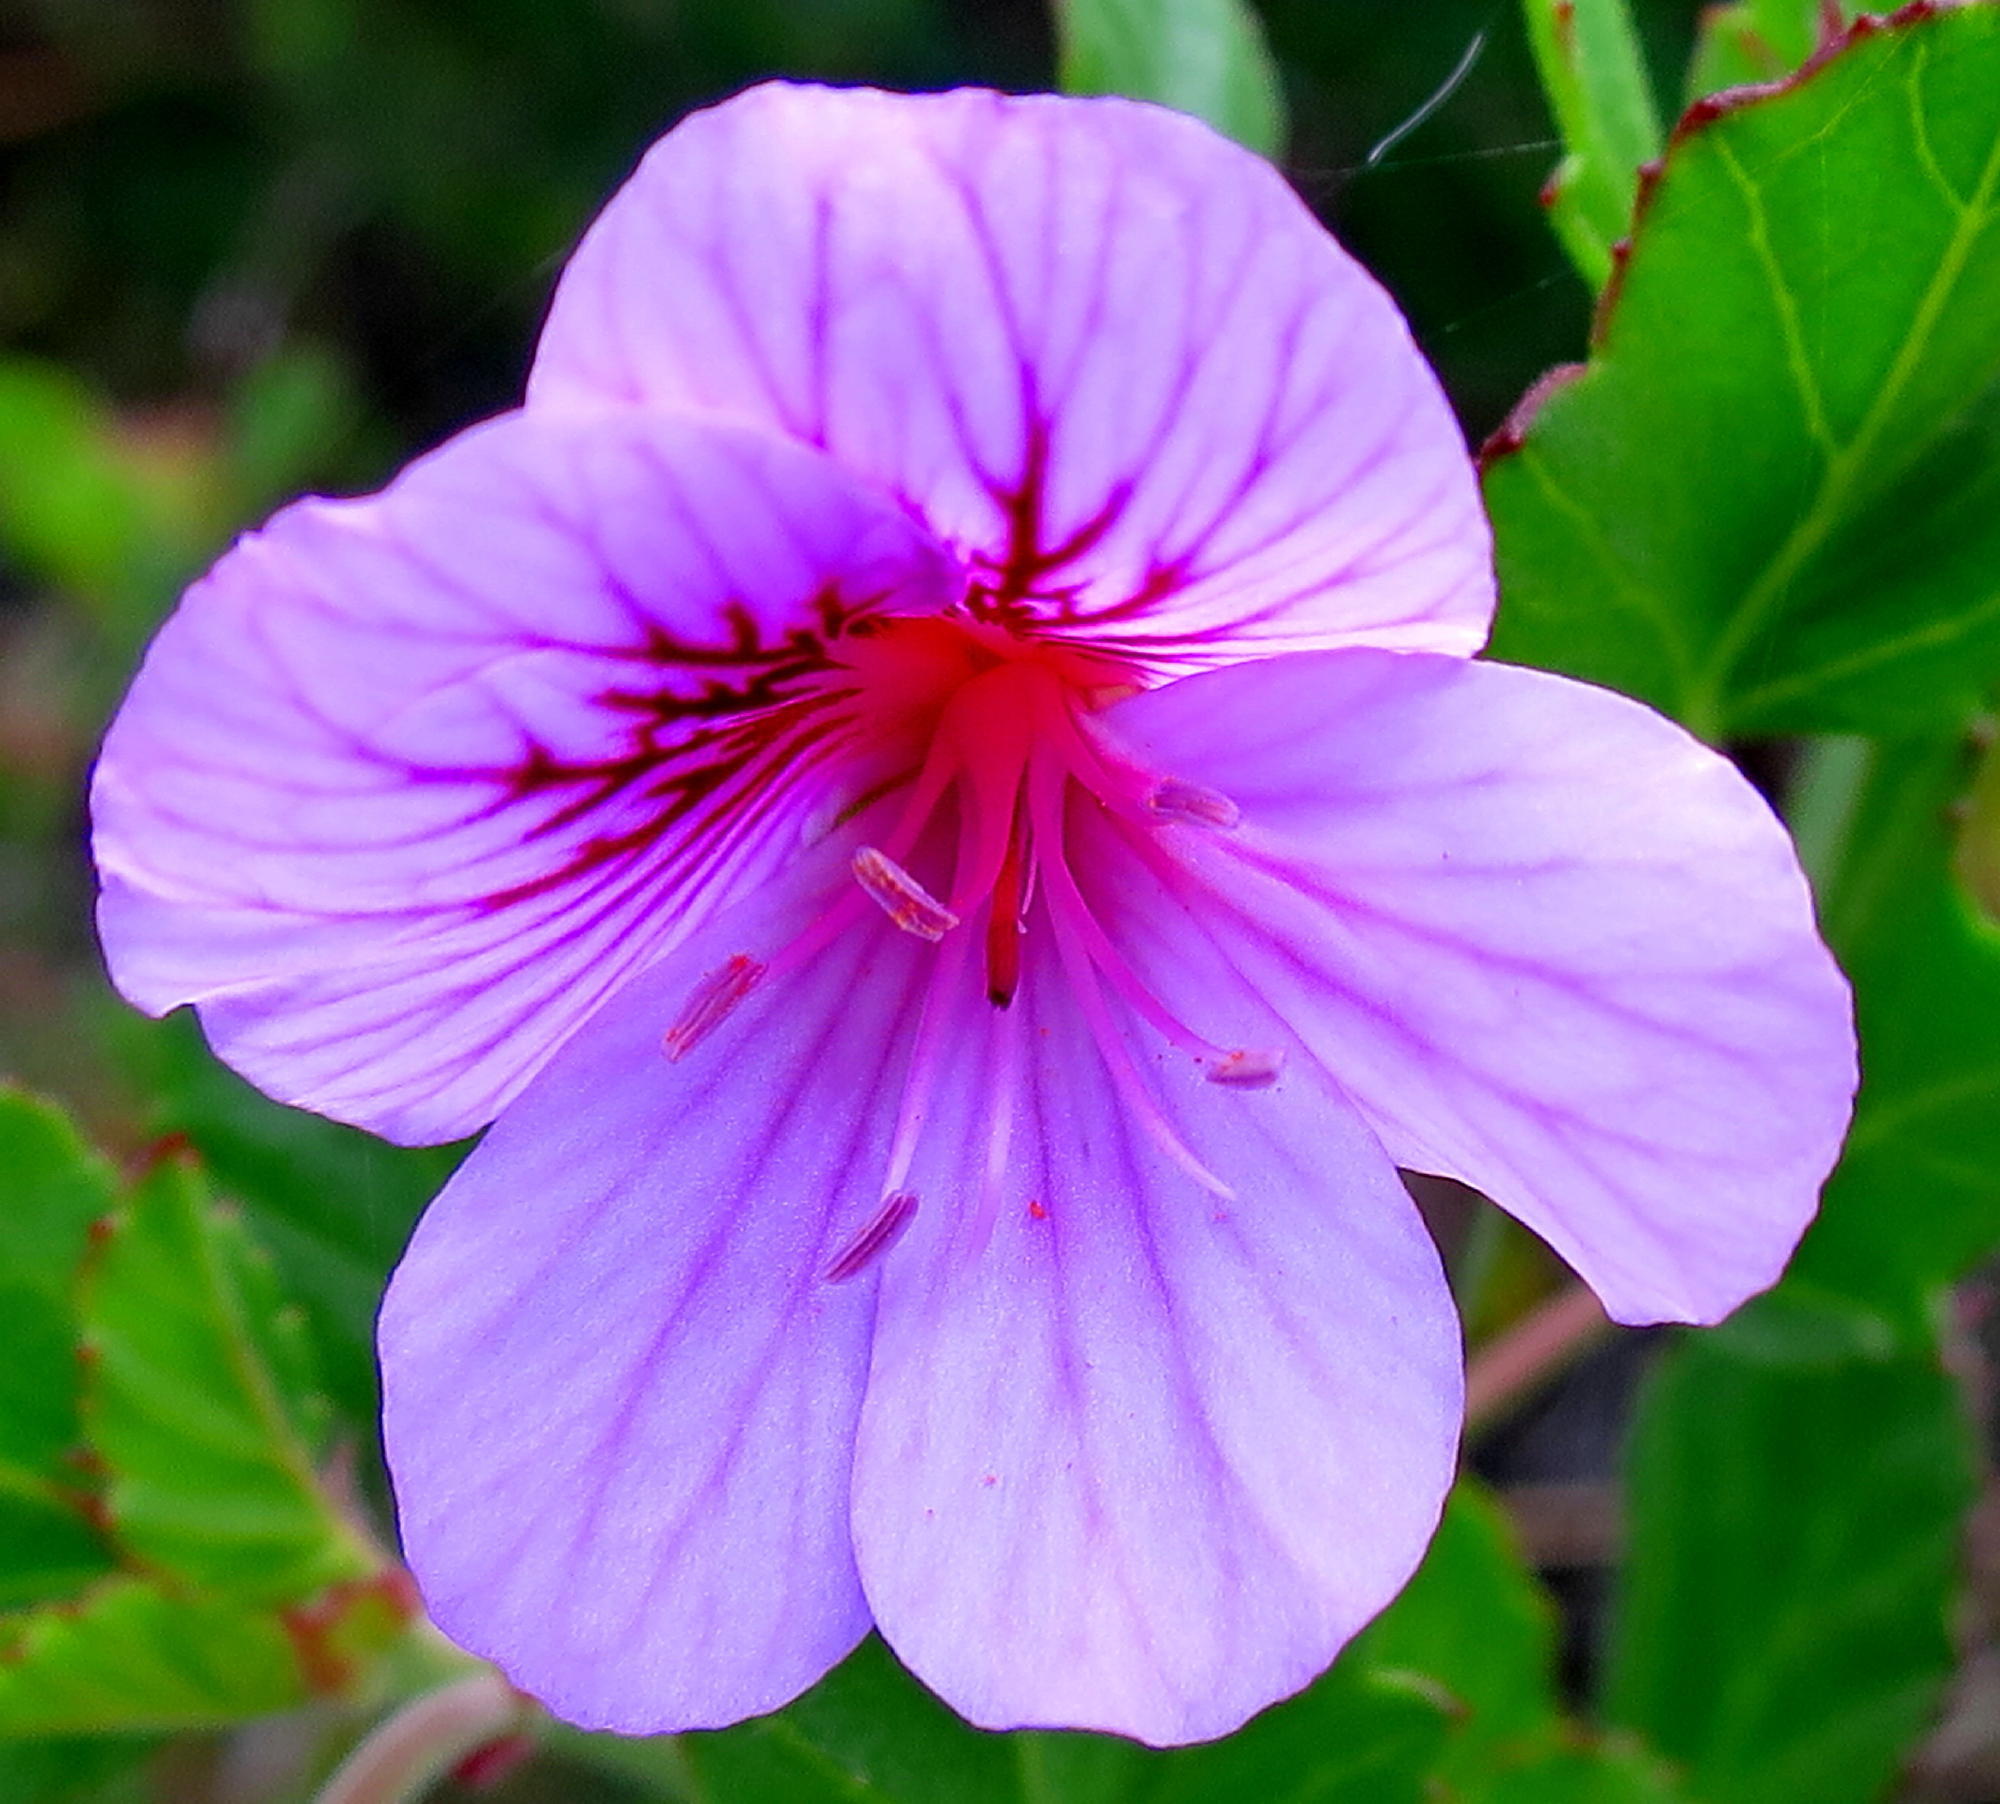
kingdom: Plantae
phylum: Tracheophyta
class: Magnoliopsida
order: Geraniales
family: Geraniaceae
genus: Pelargonium
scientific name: Pelargonium betulinum
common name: Birch-leaf pelargonium
